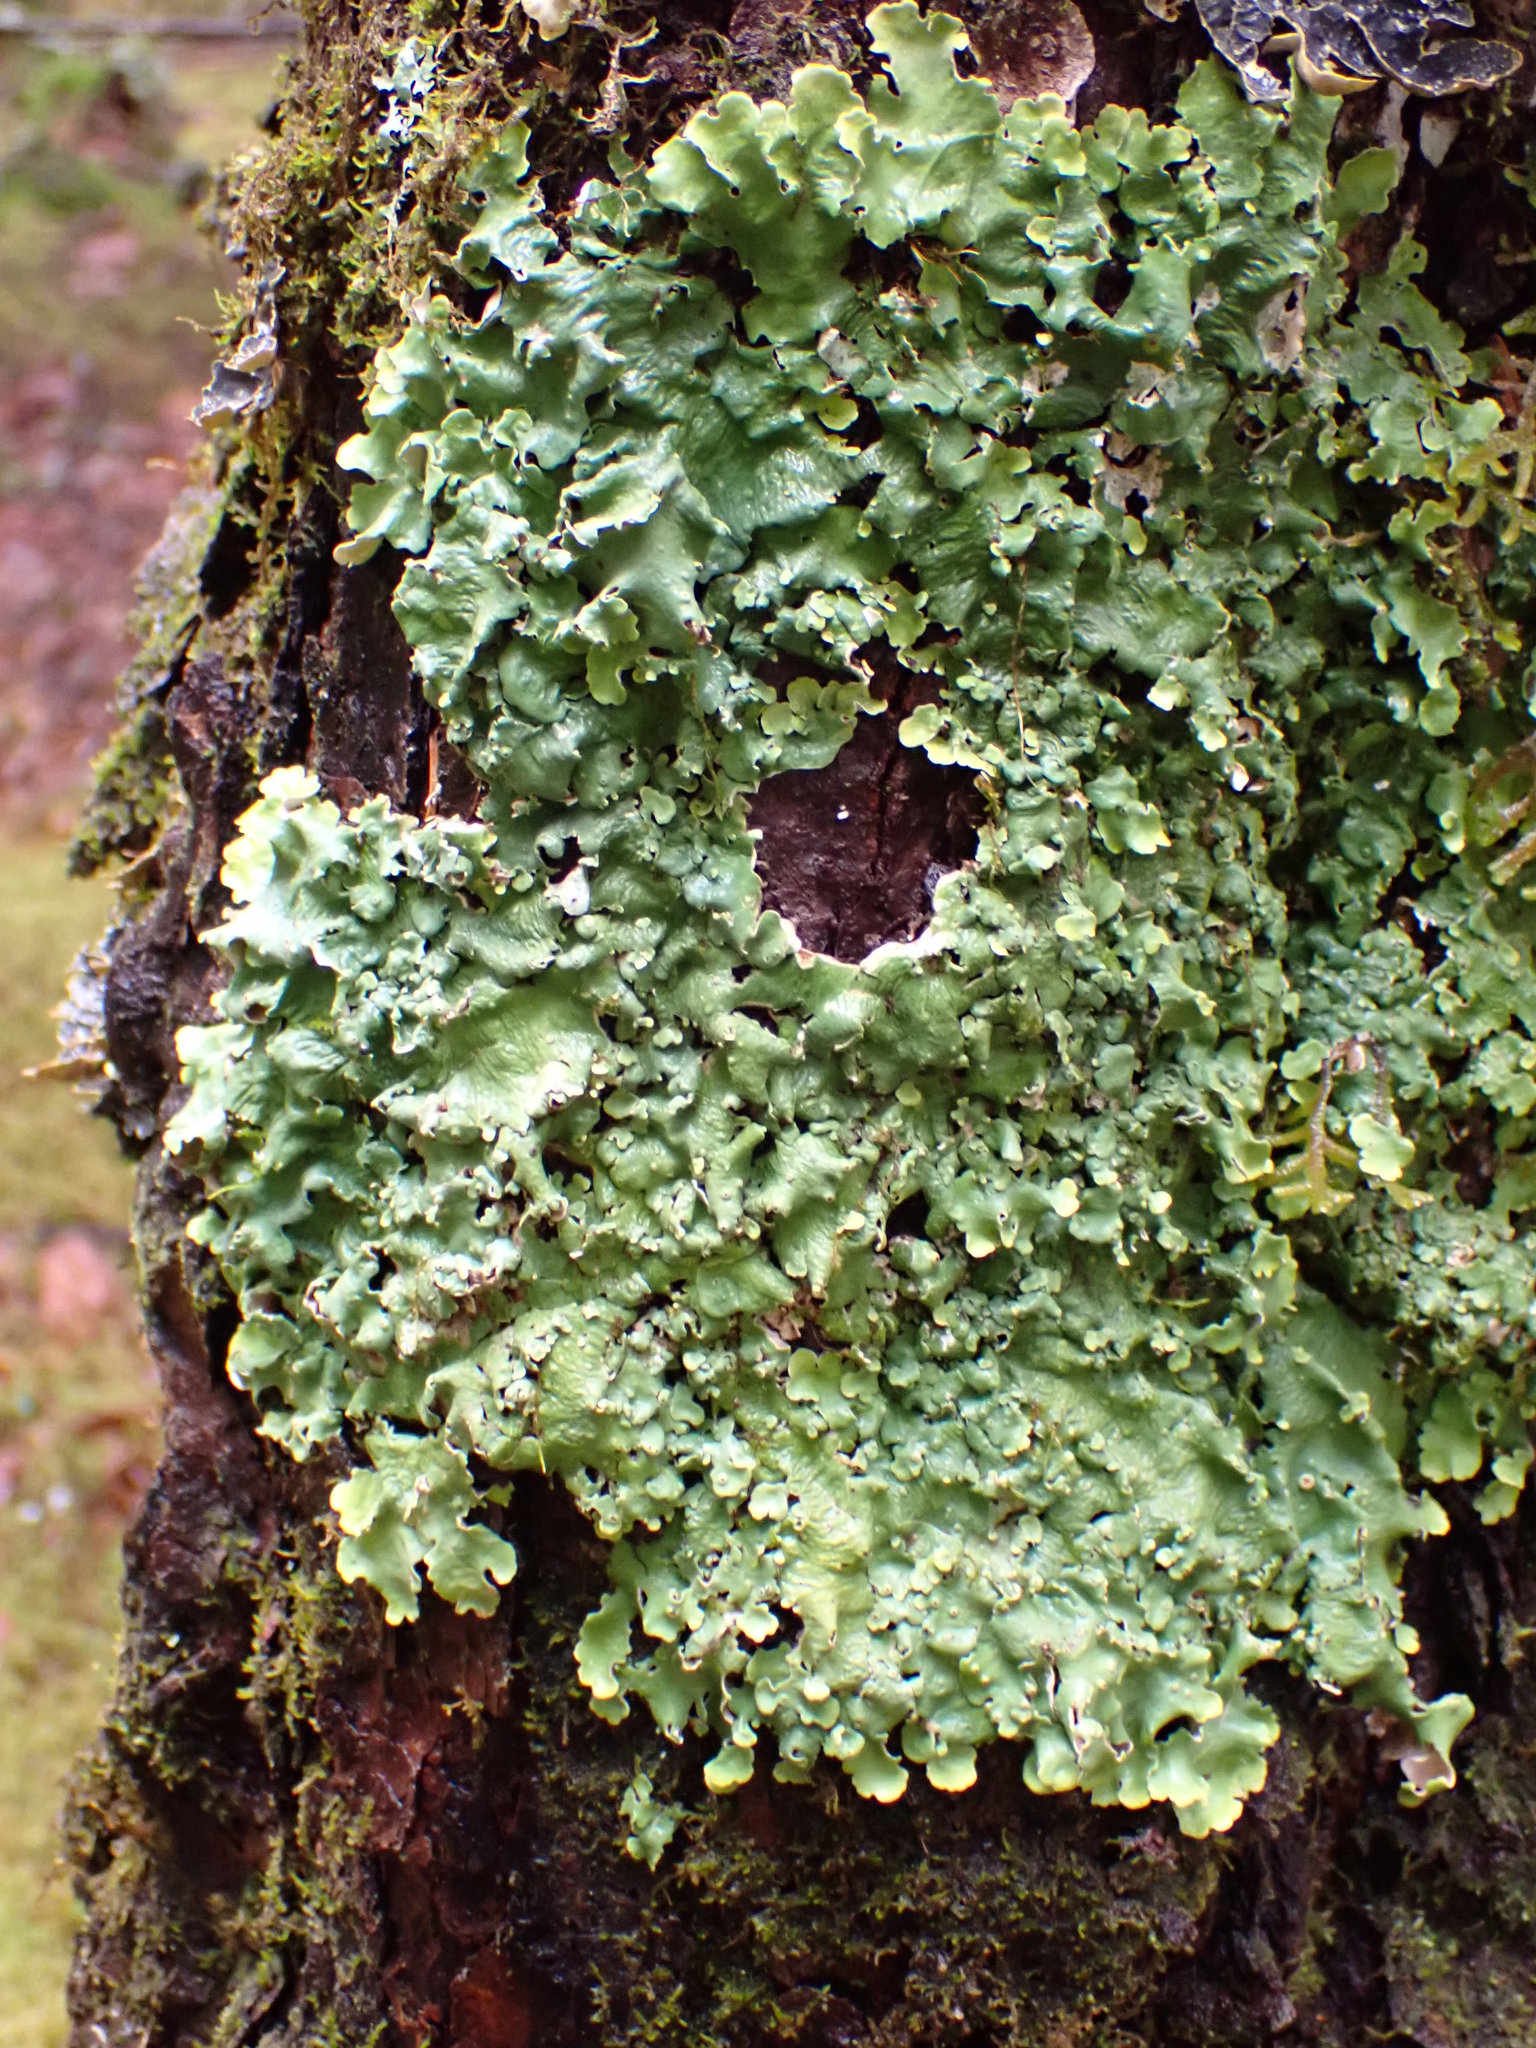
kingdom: Fungi
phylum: Ascomycota
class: Lecanoromycetes
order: Peltigerales
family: Lobariaceae
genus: Ricasolia
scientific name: Ricasolia quercizans
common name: Smooth lungwort
